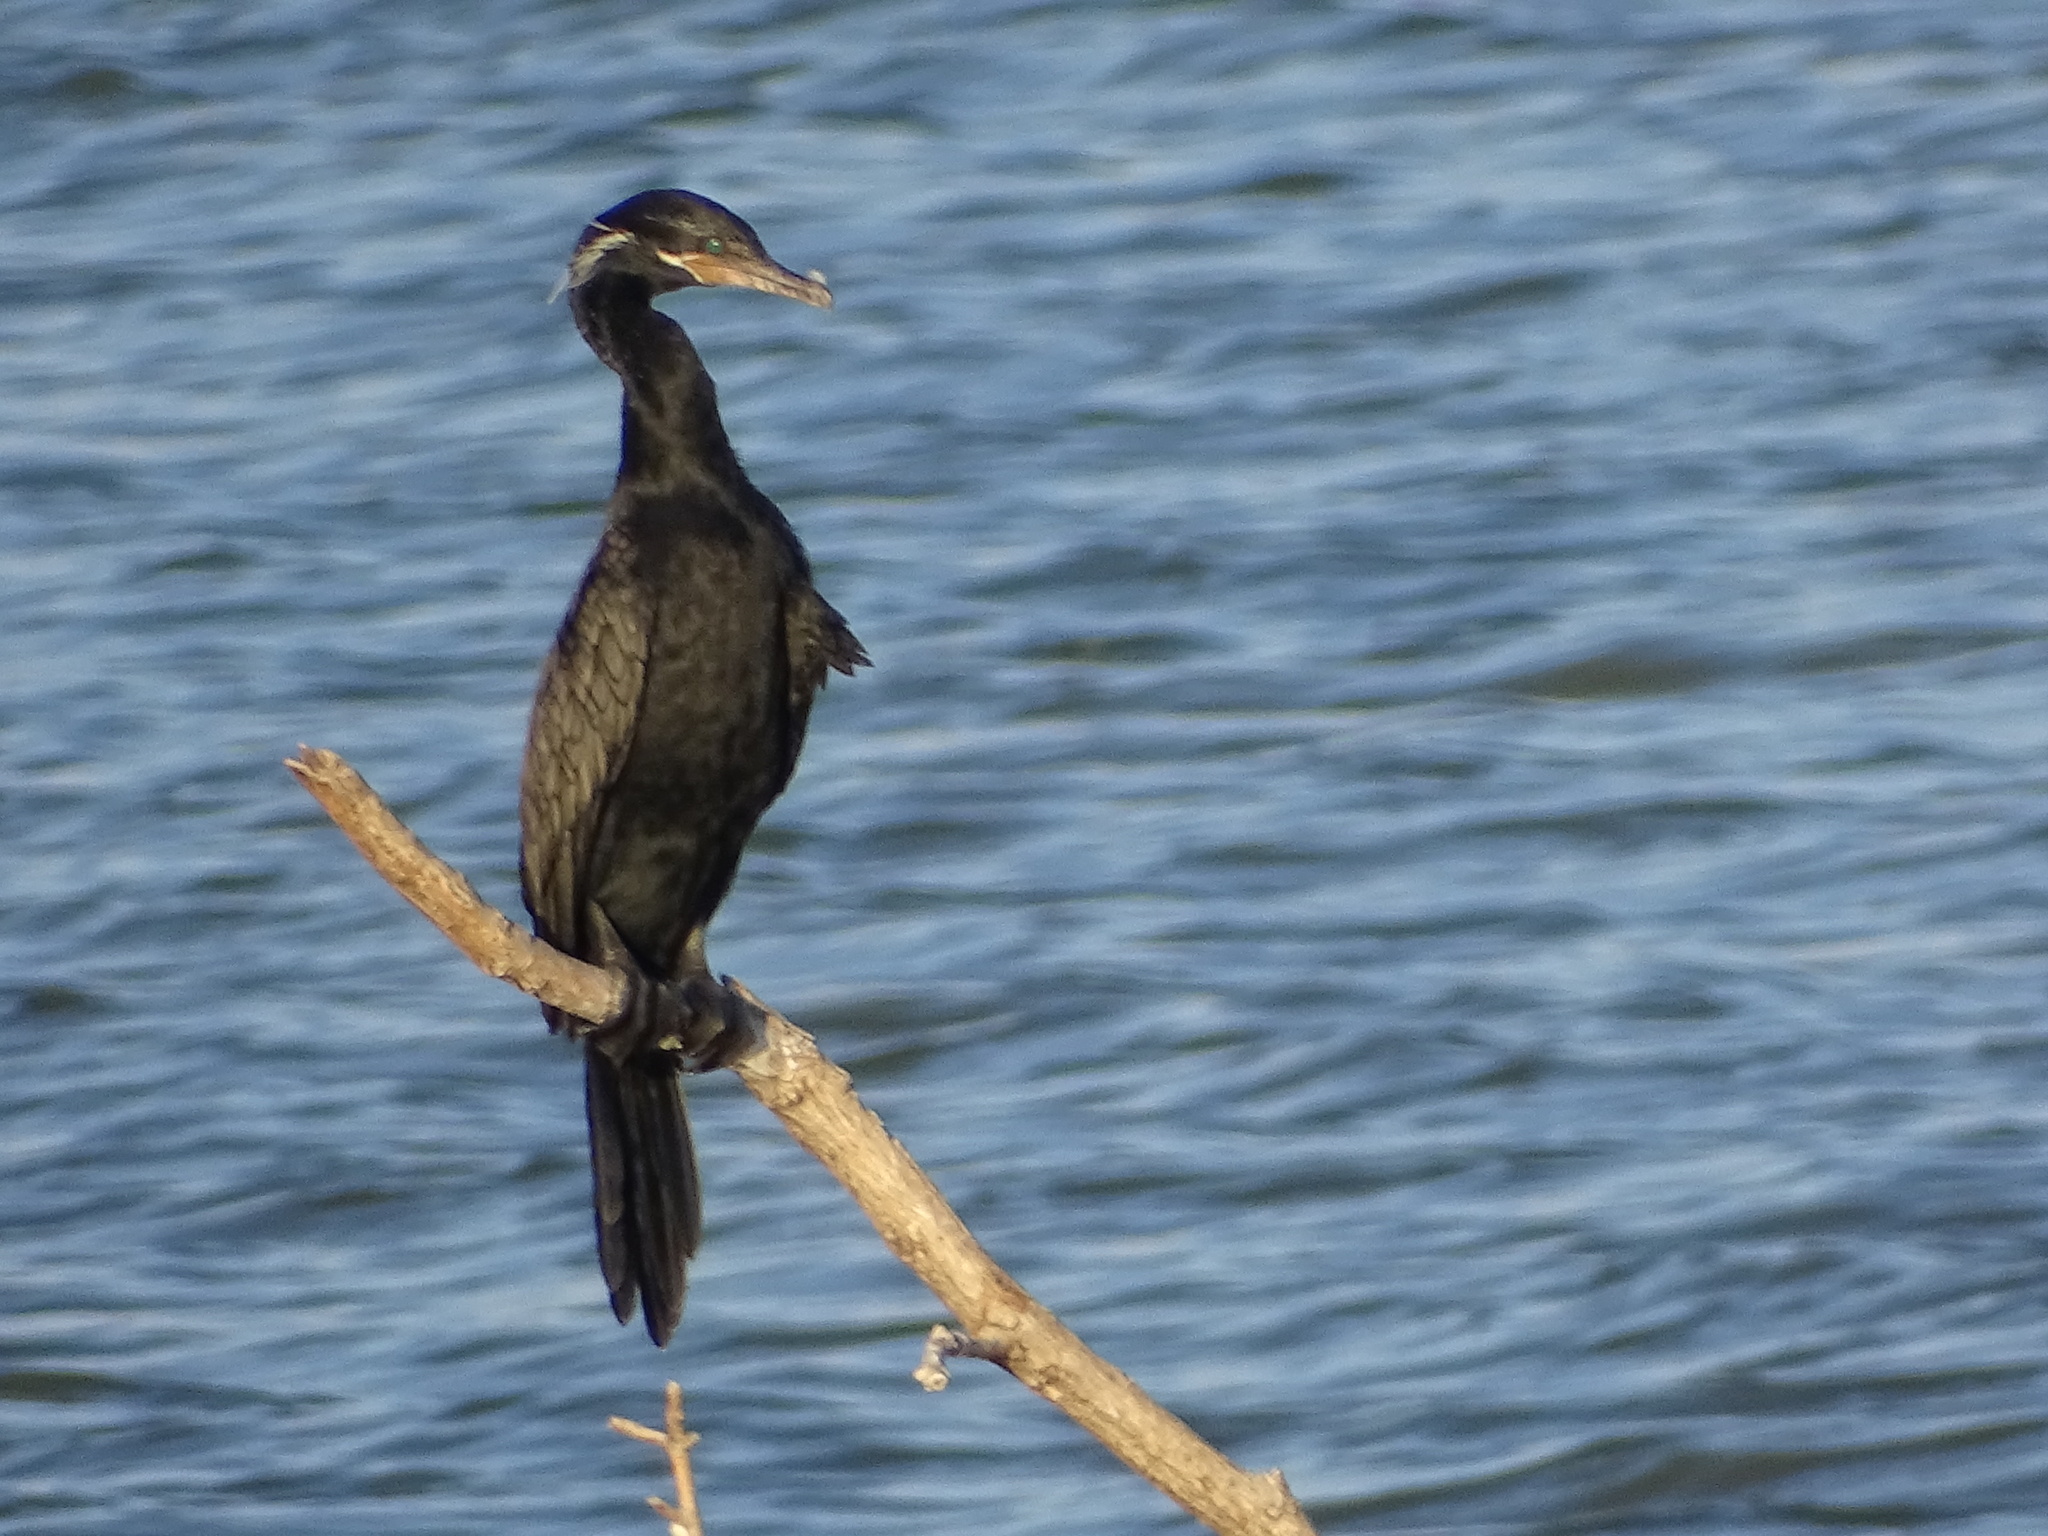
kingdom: Animalia
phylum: Chordata
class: Aves
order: Suliformes
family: Phalacrocoracidae
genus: Phalacrocorax
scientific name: Phalacrocorax brasilianus
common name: Neotropic cormorant
